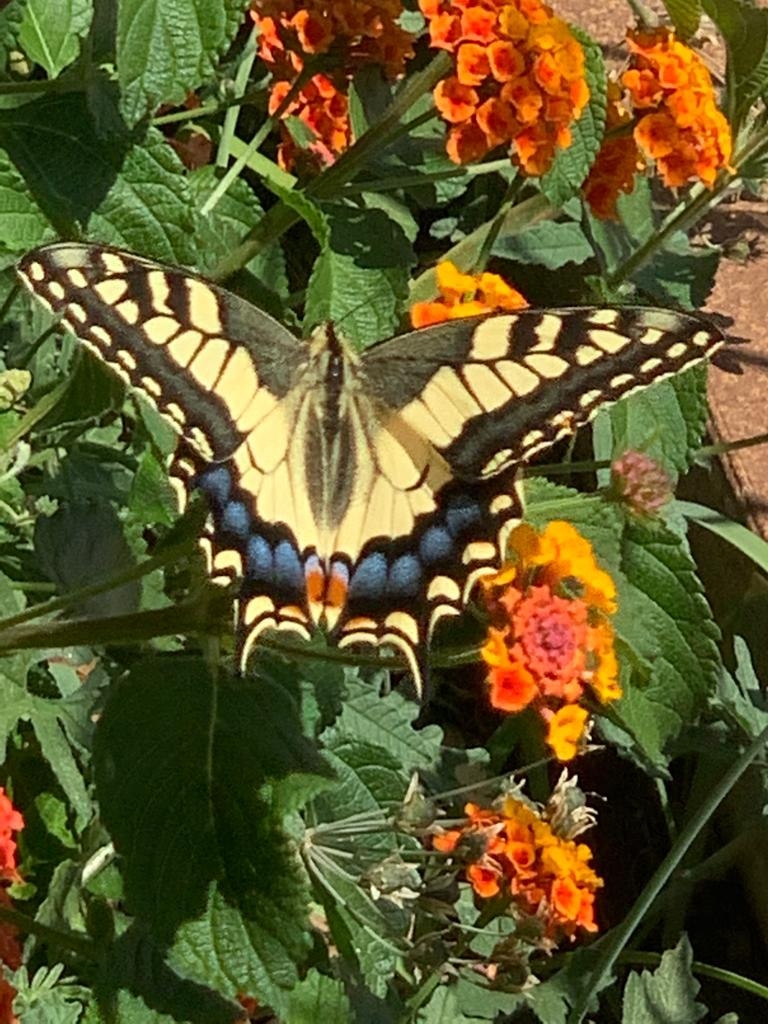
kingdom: Animalia
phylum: Arthropoda
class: Insecta
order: Lepidoptera
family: Papilionidae
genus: Papilio
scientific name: Papilio machaon
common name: Swallowtail
